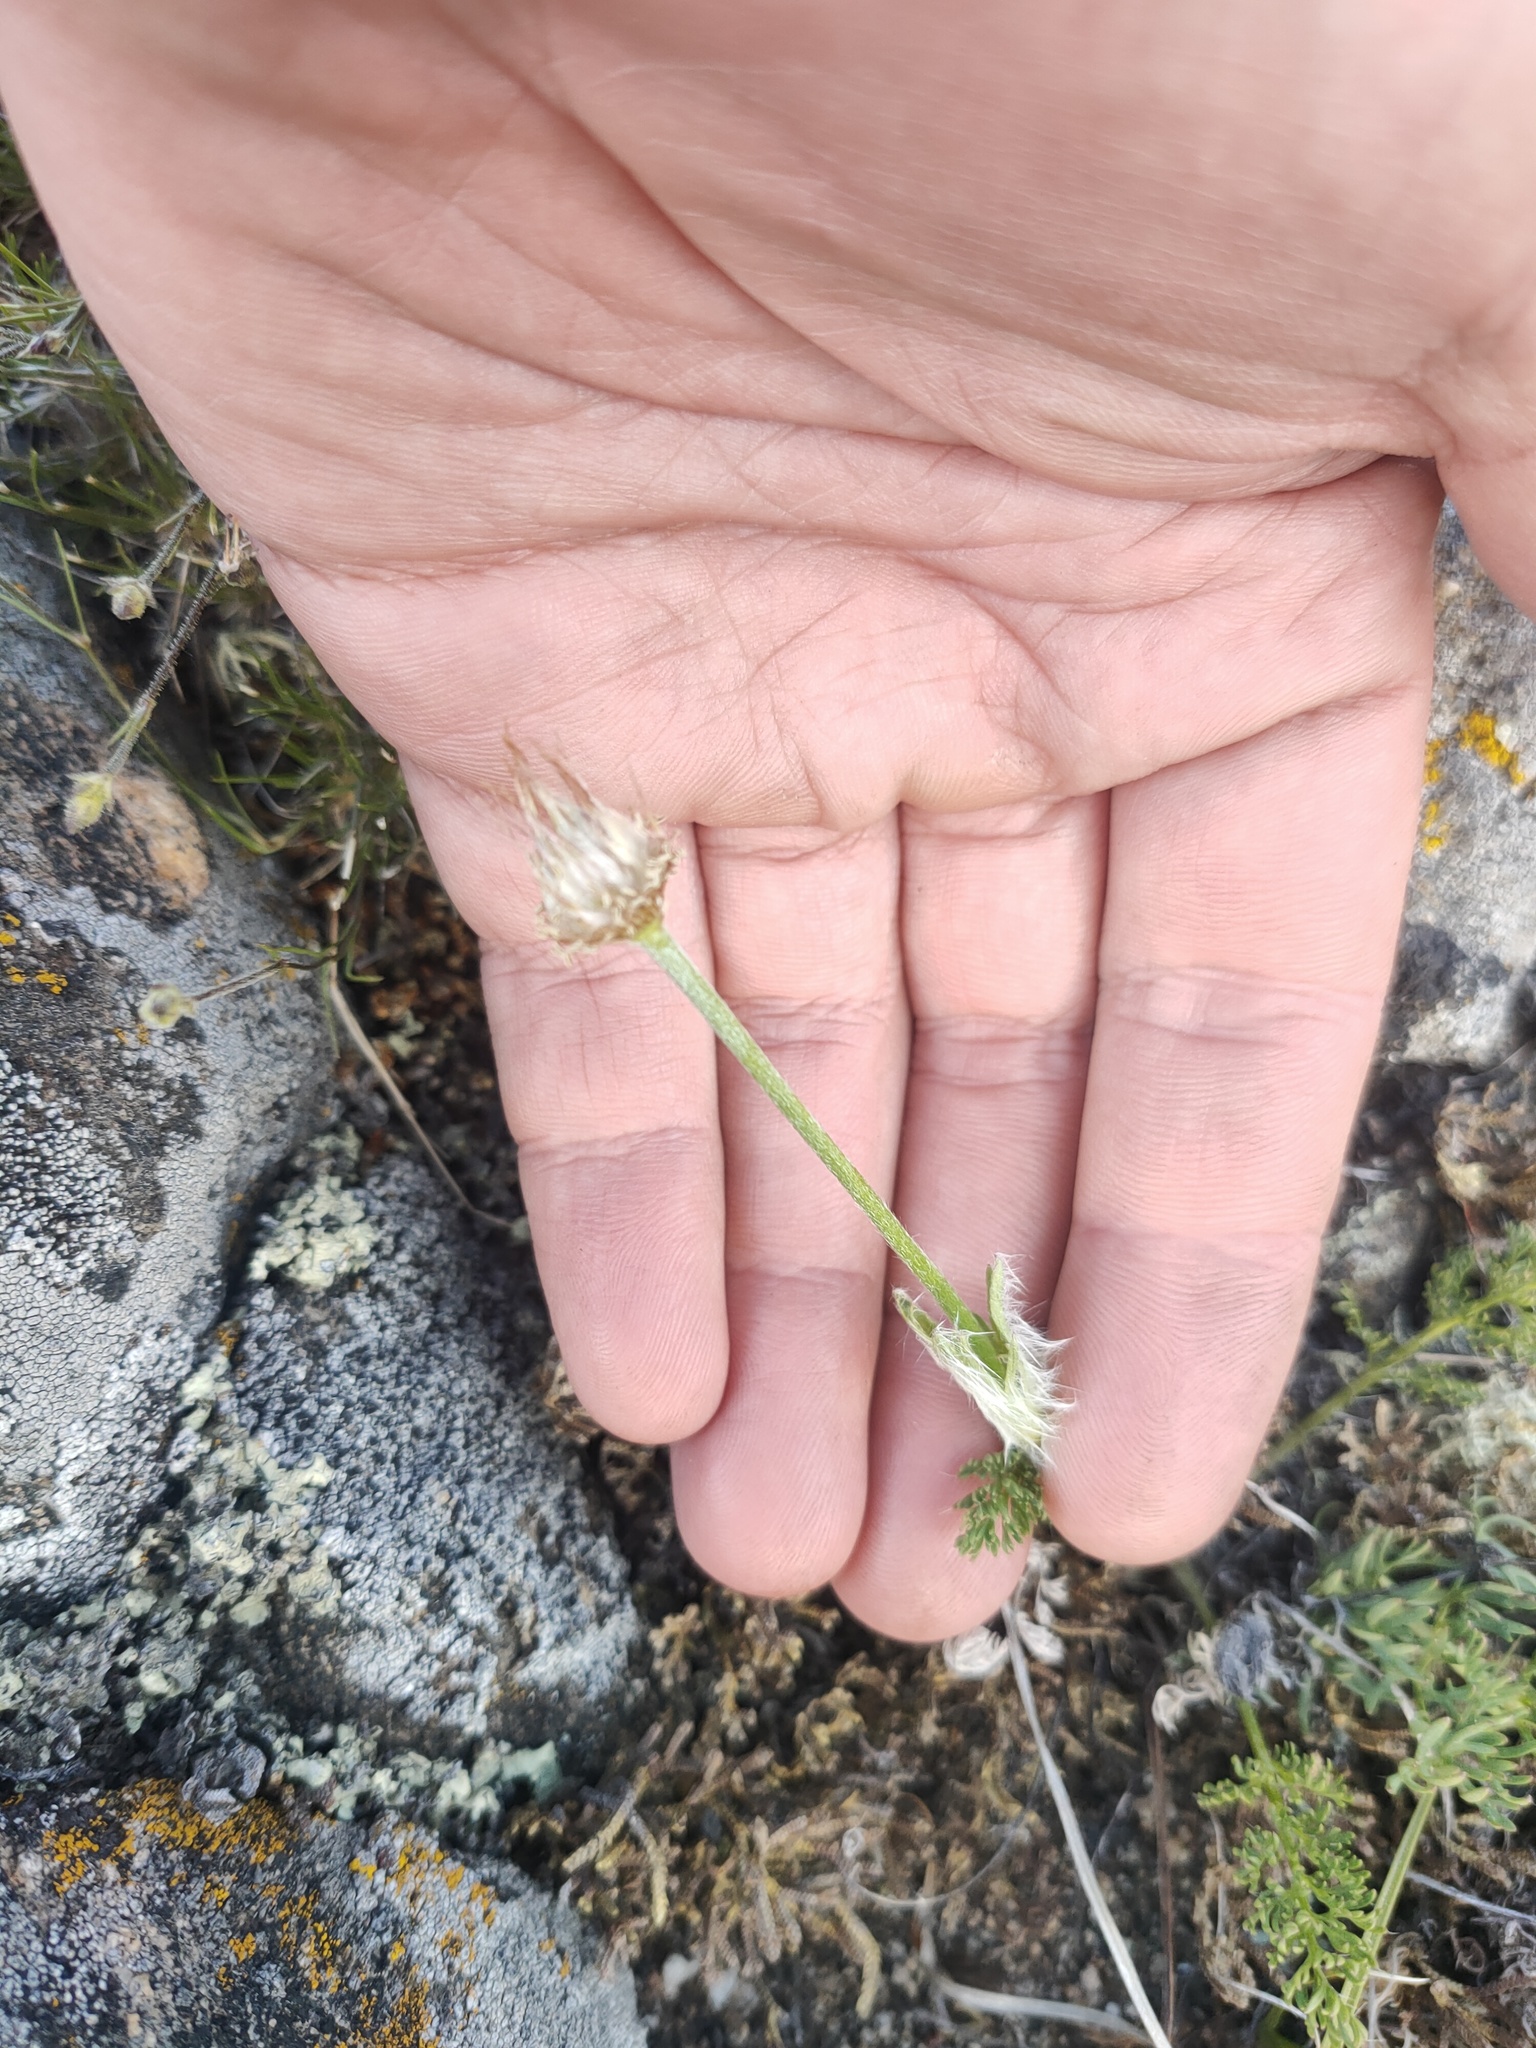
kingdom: Plantae
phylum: Tracheophyta
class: Magnoliopsida
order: Ranunculales
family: Ranunculaceae
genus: Pulsatilla
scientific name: Pulsatilla tenuiloba
